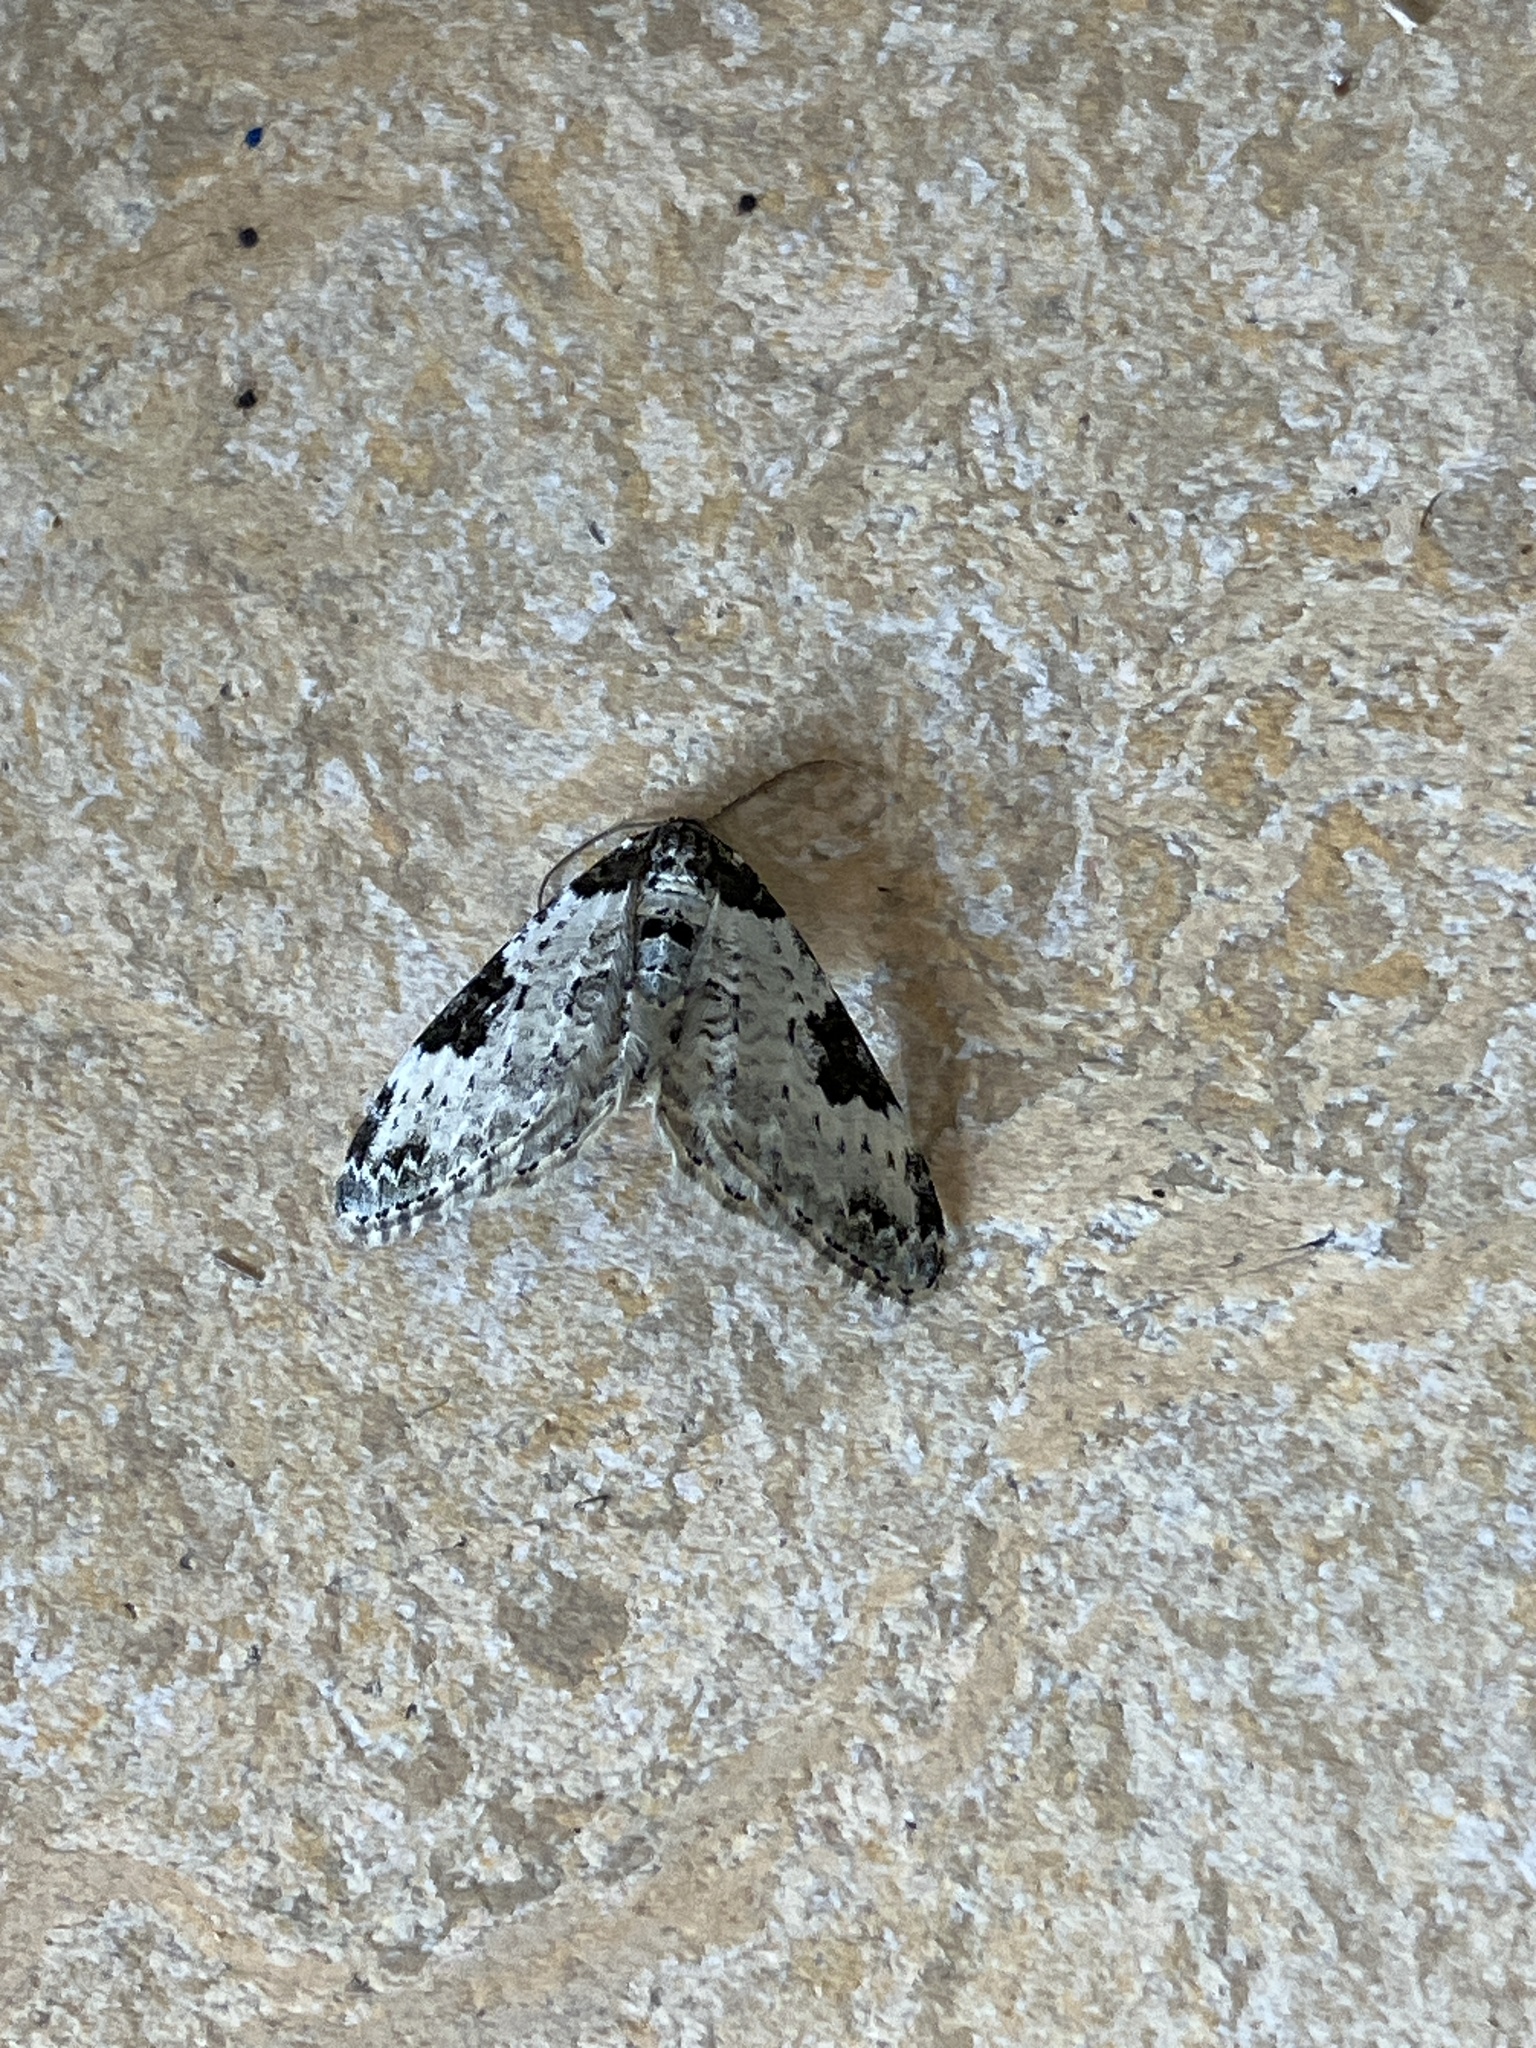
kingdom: Animalia
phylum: Arthropoda
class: Insecta
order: Lepidoptera
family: Geometridae
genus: Xanthorhoe
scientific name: Xanthorhoe fluctuata
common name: Garden carpet
